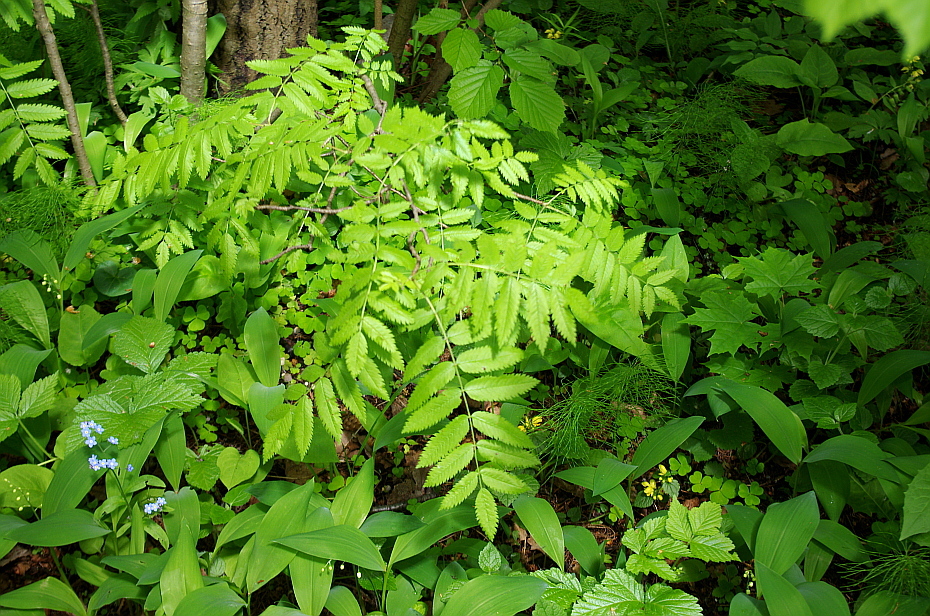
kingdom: Plantae
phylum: Tracheophyta
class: Magnoliopsida
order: Rosales
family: Rosaceae
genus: Sorbus
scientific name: Sorbus aucuparia
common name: Rowan
